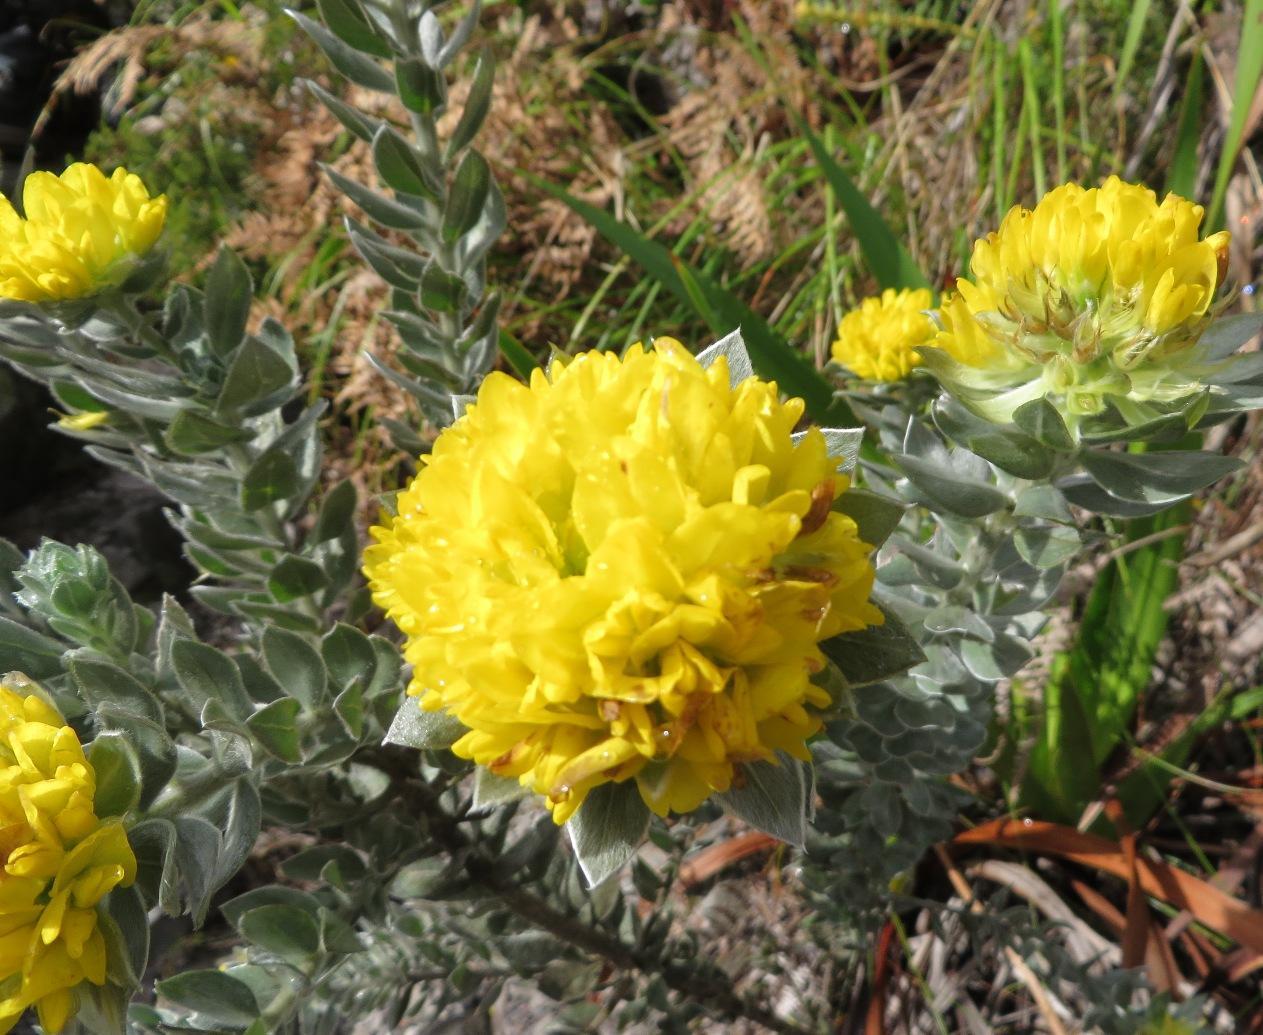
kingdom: Plantae
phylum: Tracheophyta
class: Magnoliopsida
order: Fabales
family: Fabaceae
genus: Xiphotheca
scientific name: Xiphotheca fruticosa
